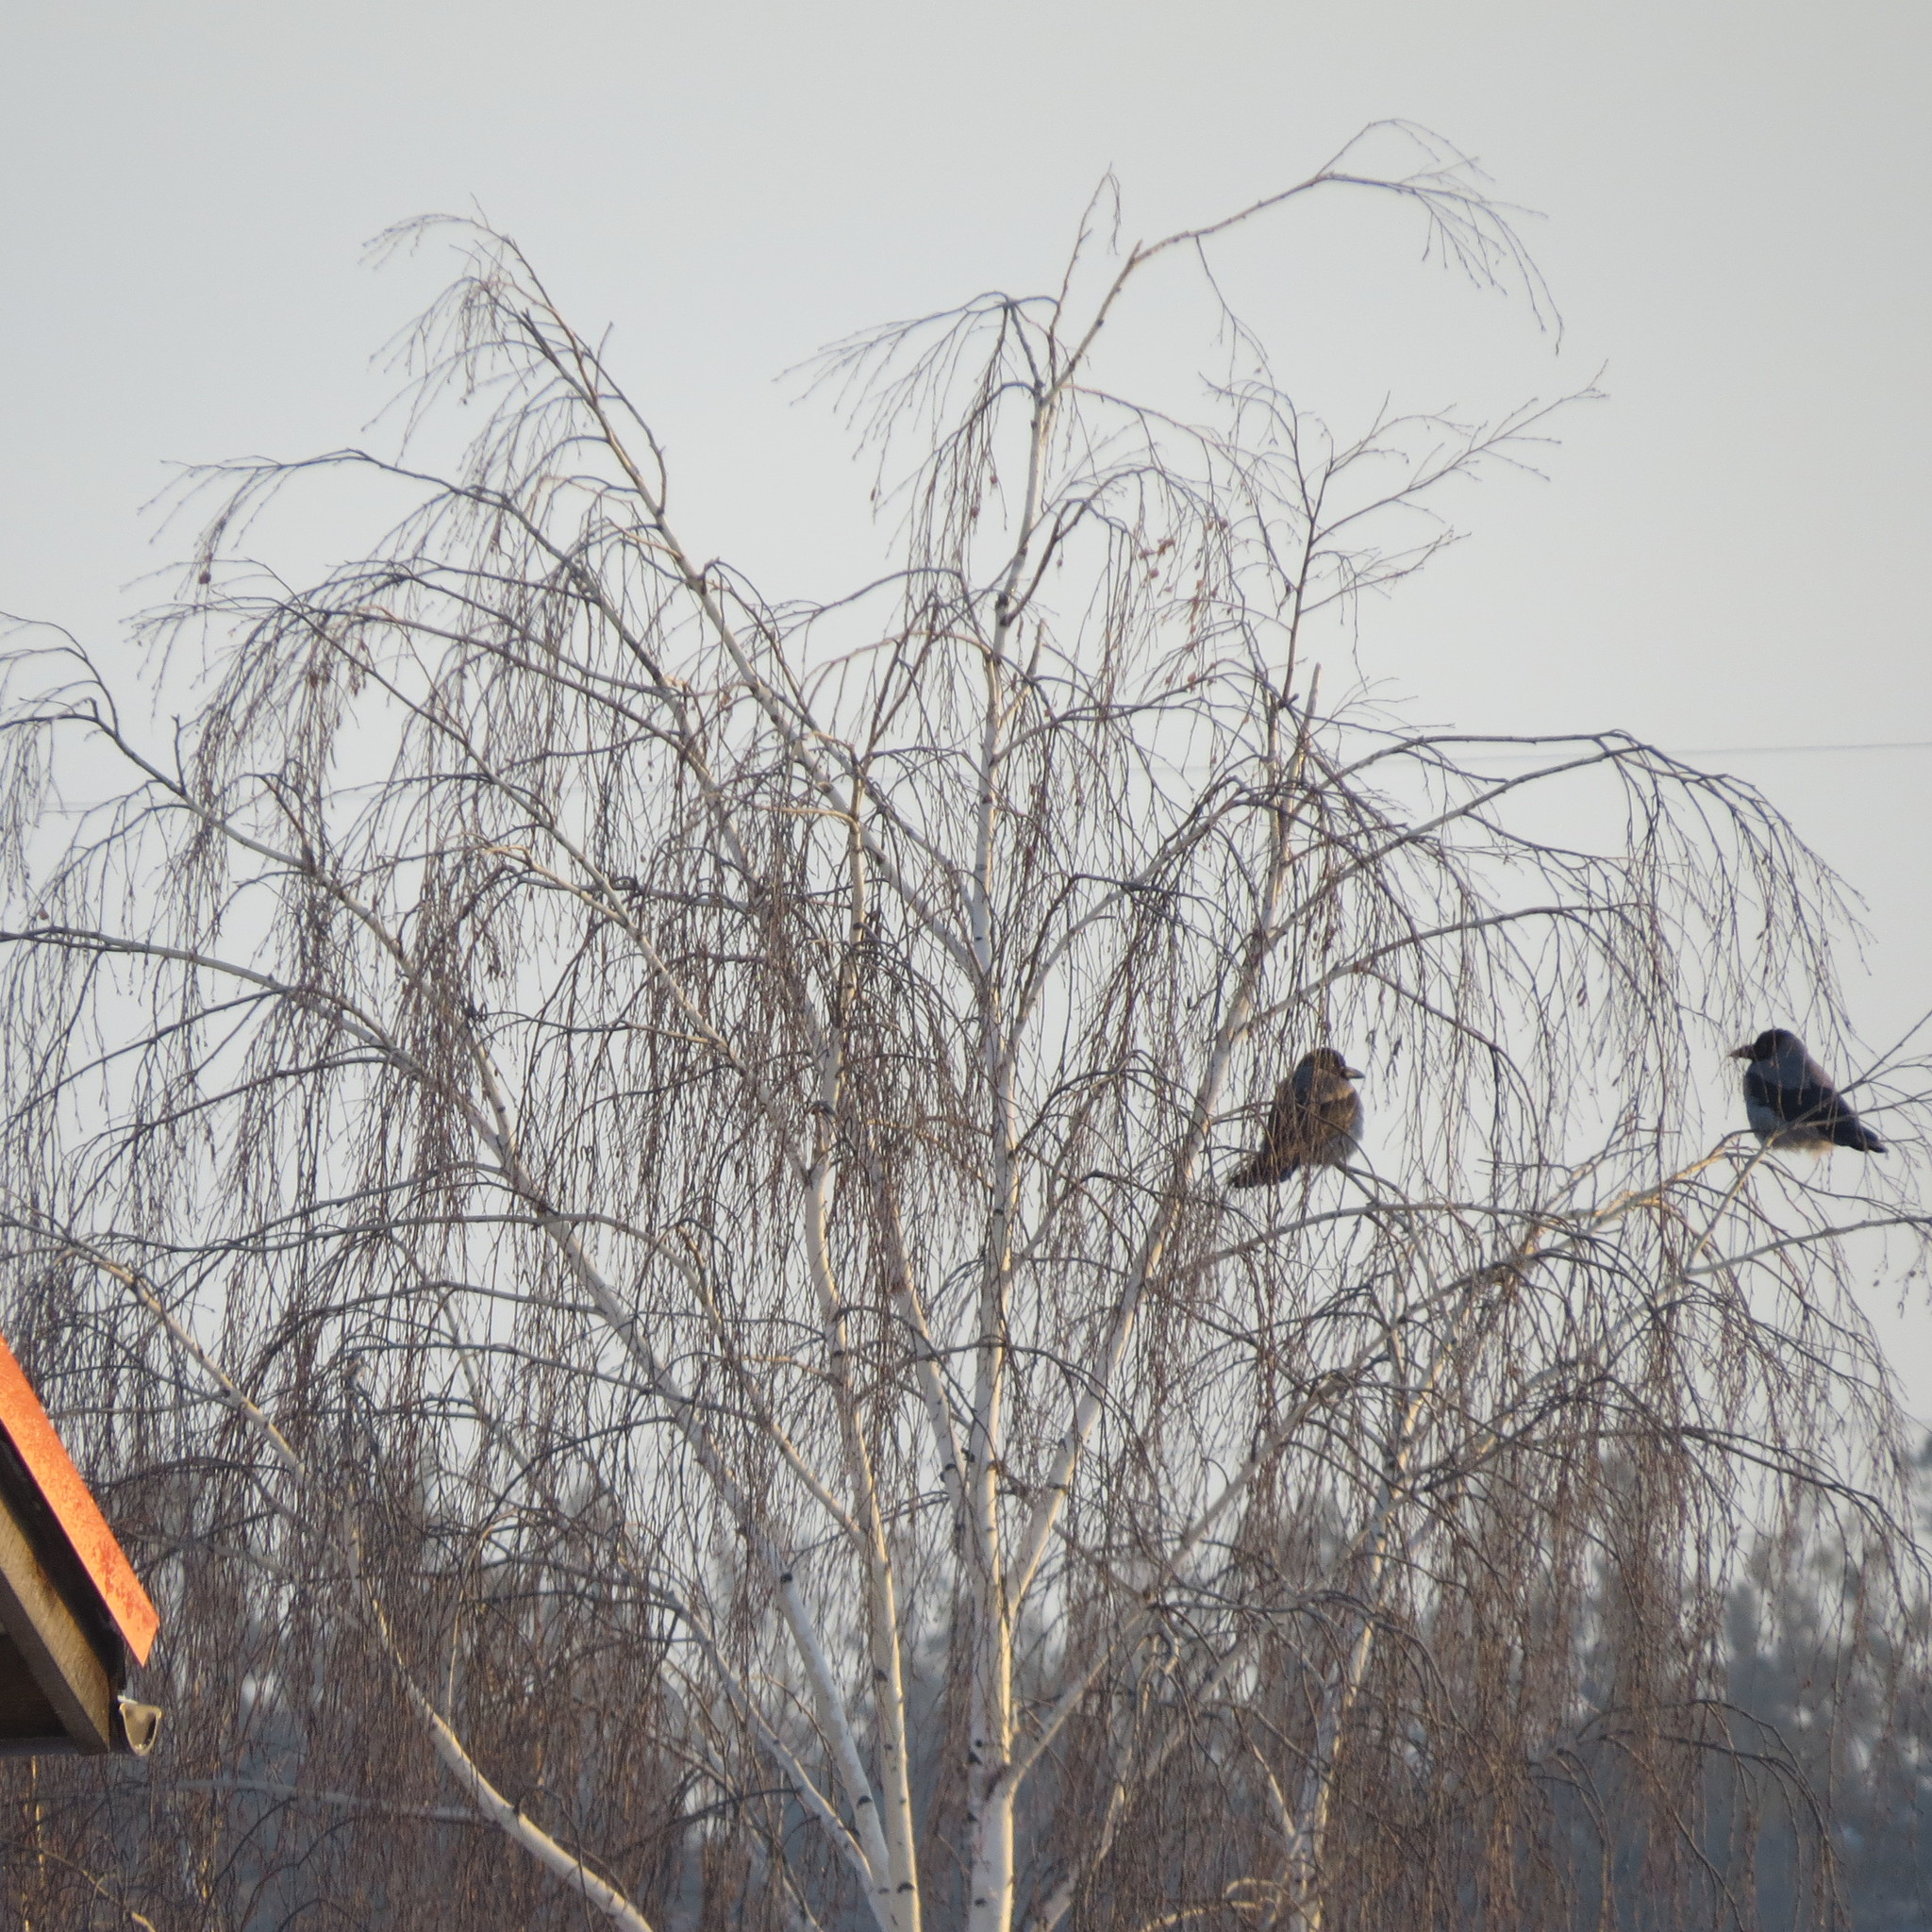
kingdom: Animalia
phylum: Chordata
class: Aves
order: Passeriformes
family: Corvidae
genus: Corvus
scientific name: Corvus cornix
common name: Hooded crow
